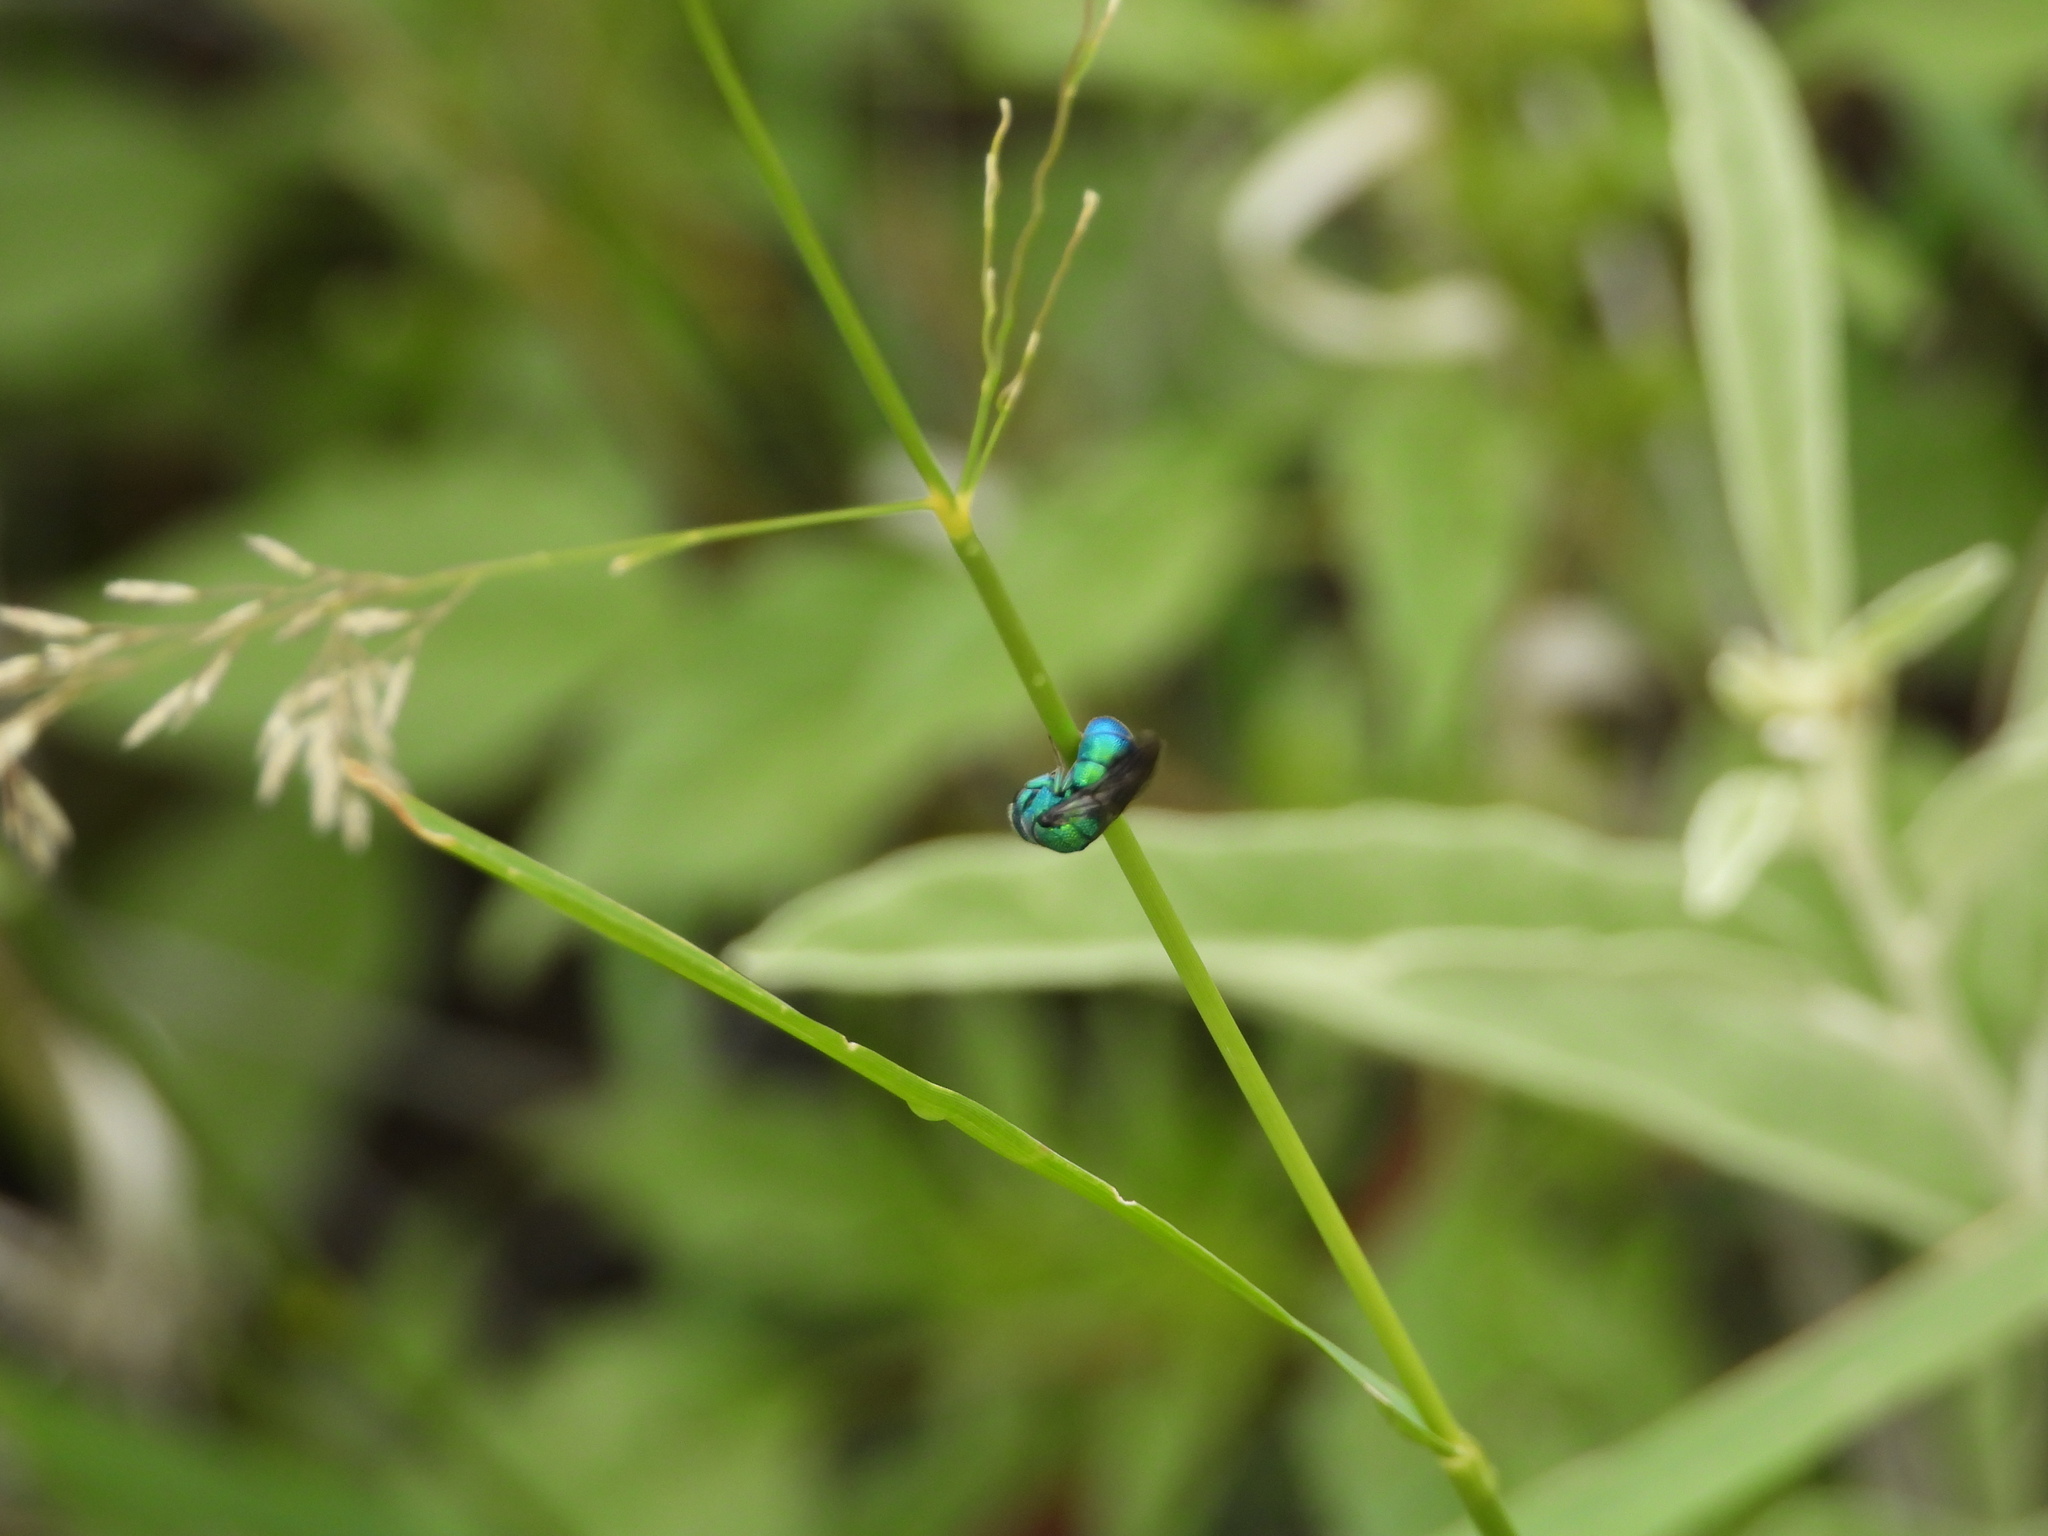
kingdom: Animalia
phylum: Arthropoda
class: Insecta
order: Hymenoptera
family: Chrysididae
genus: Holopyga
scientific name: Holopyga
